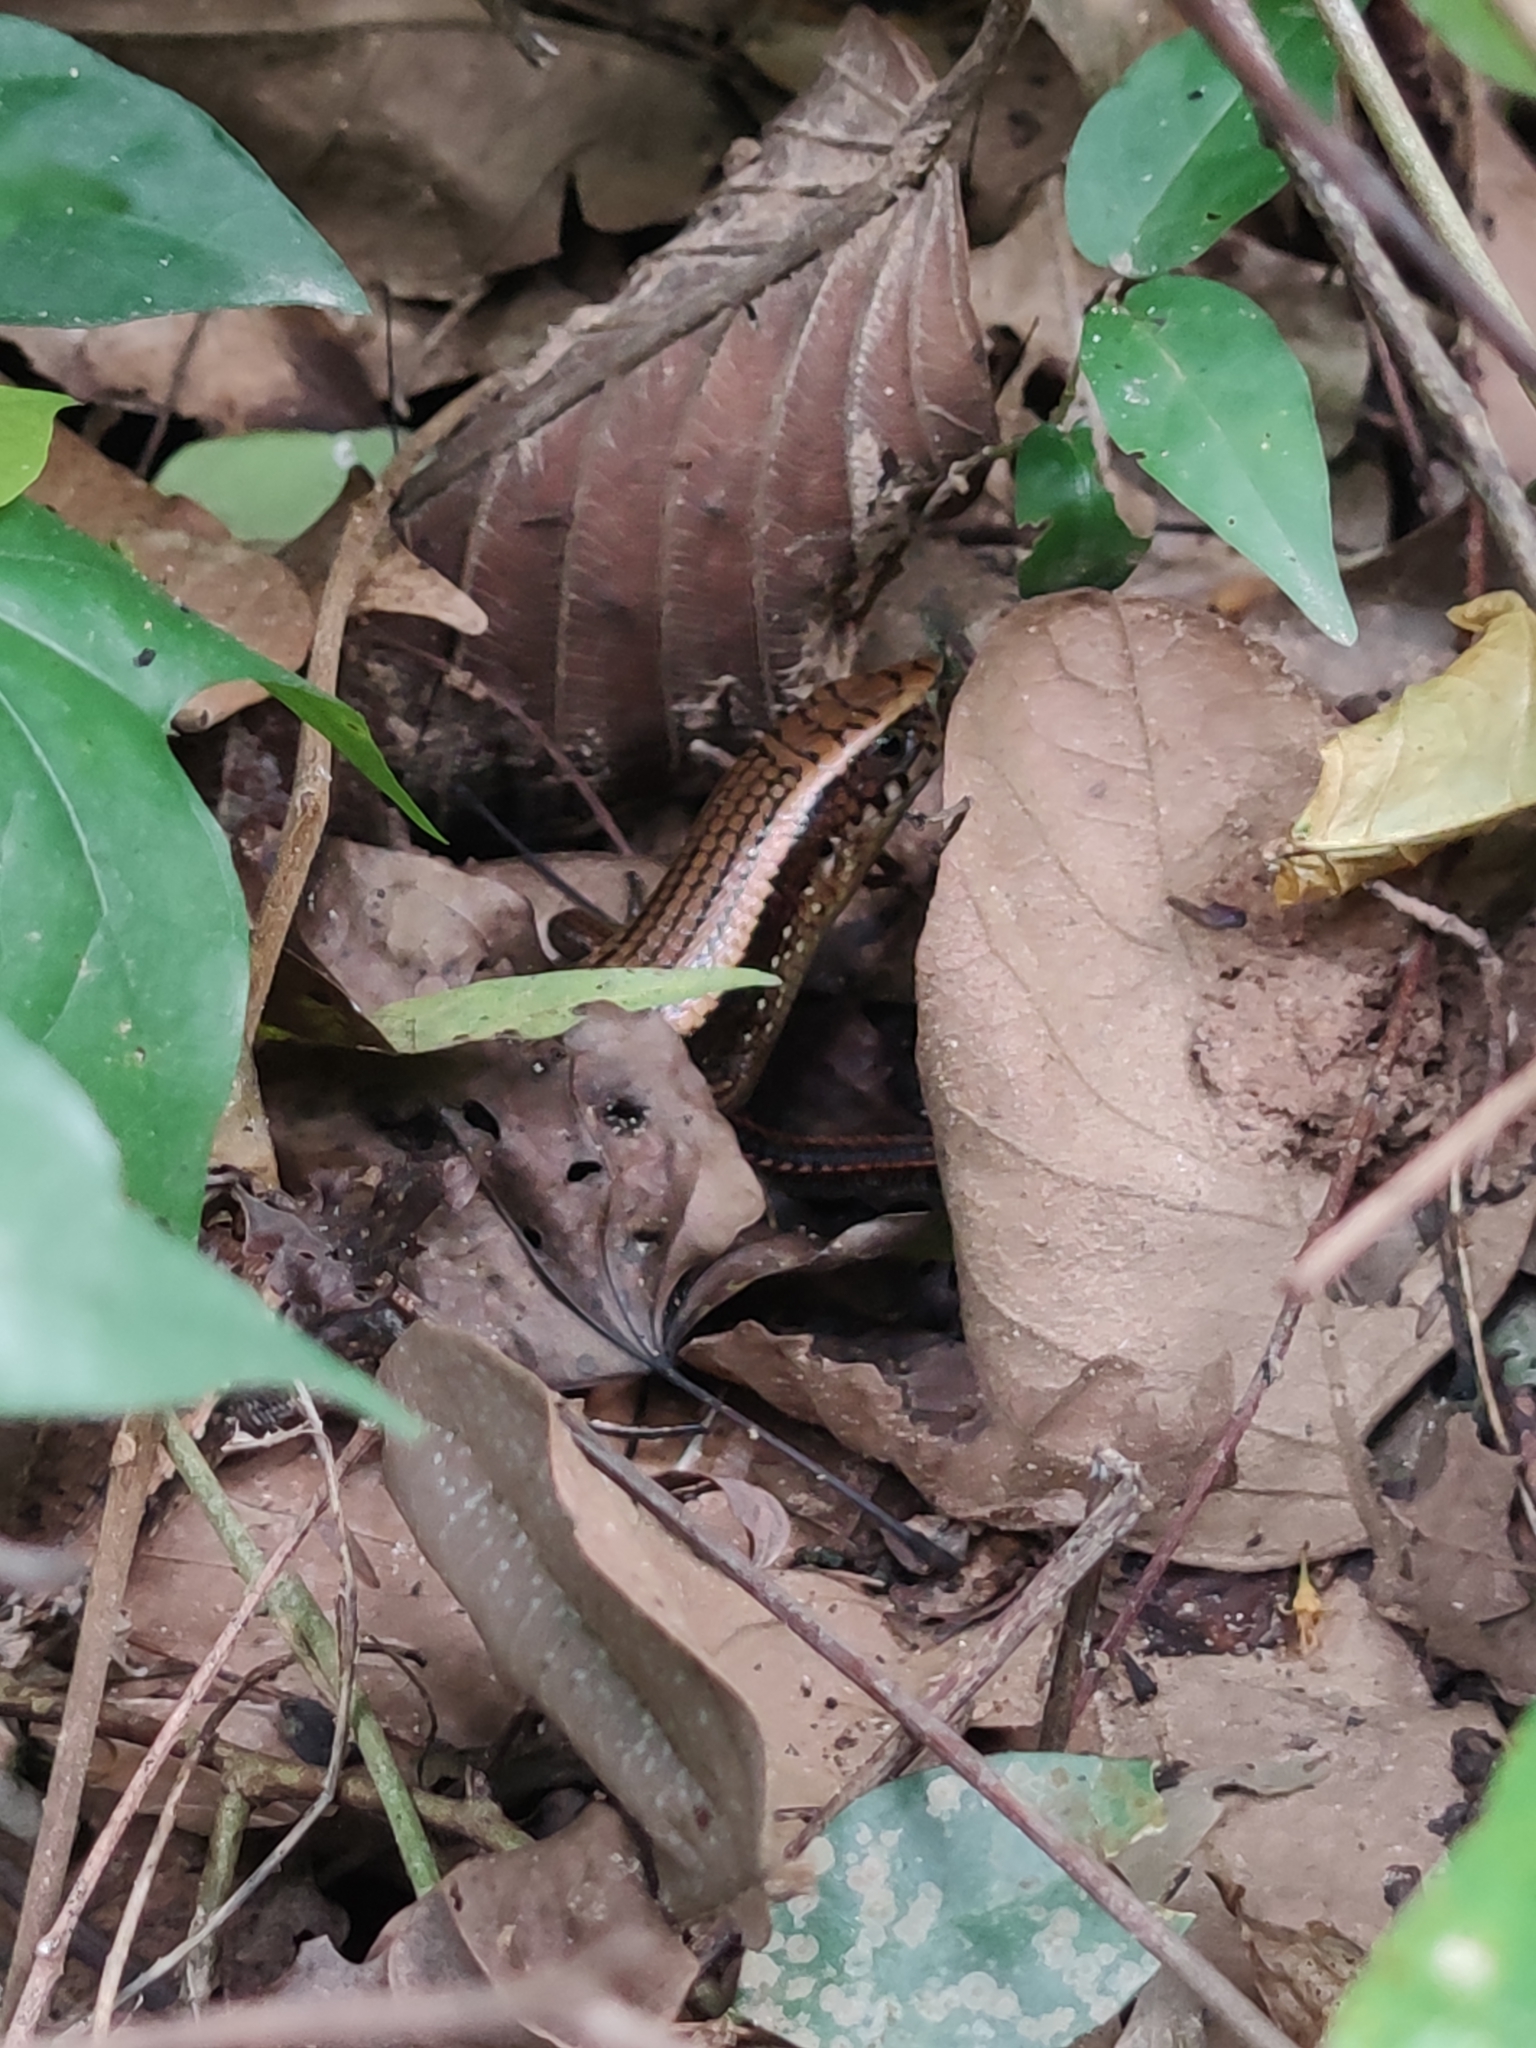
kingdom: Animalia
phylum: Chordata
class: Squamata
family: Scincidae
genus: Eutropis
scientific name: Eutropis multifasciata
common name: Common mabuya
